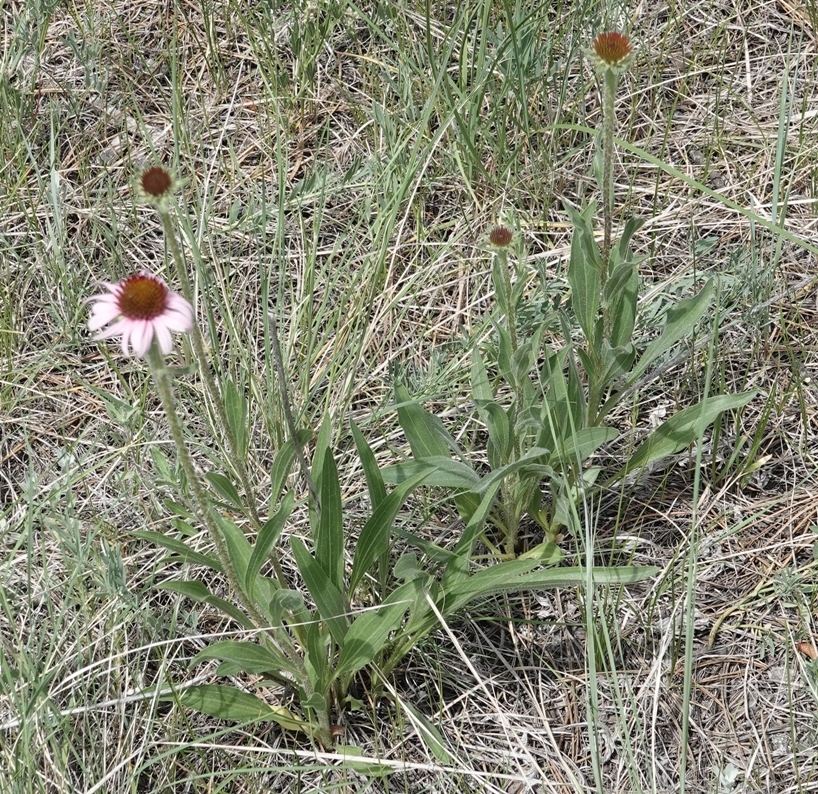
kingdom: Plantae
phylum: Tracheophyta
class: Magnoliopsida
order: Asterales
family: Asteraceae
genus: Echinacea
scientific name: Echinacea angustifolia
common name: Black-sampson echinacea
